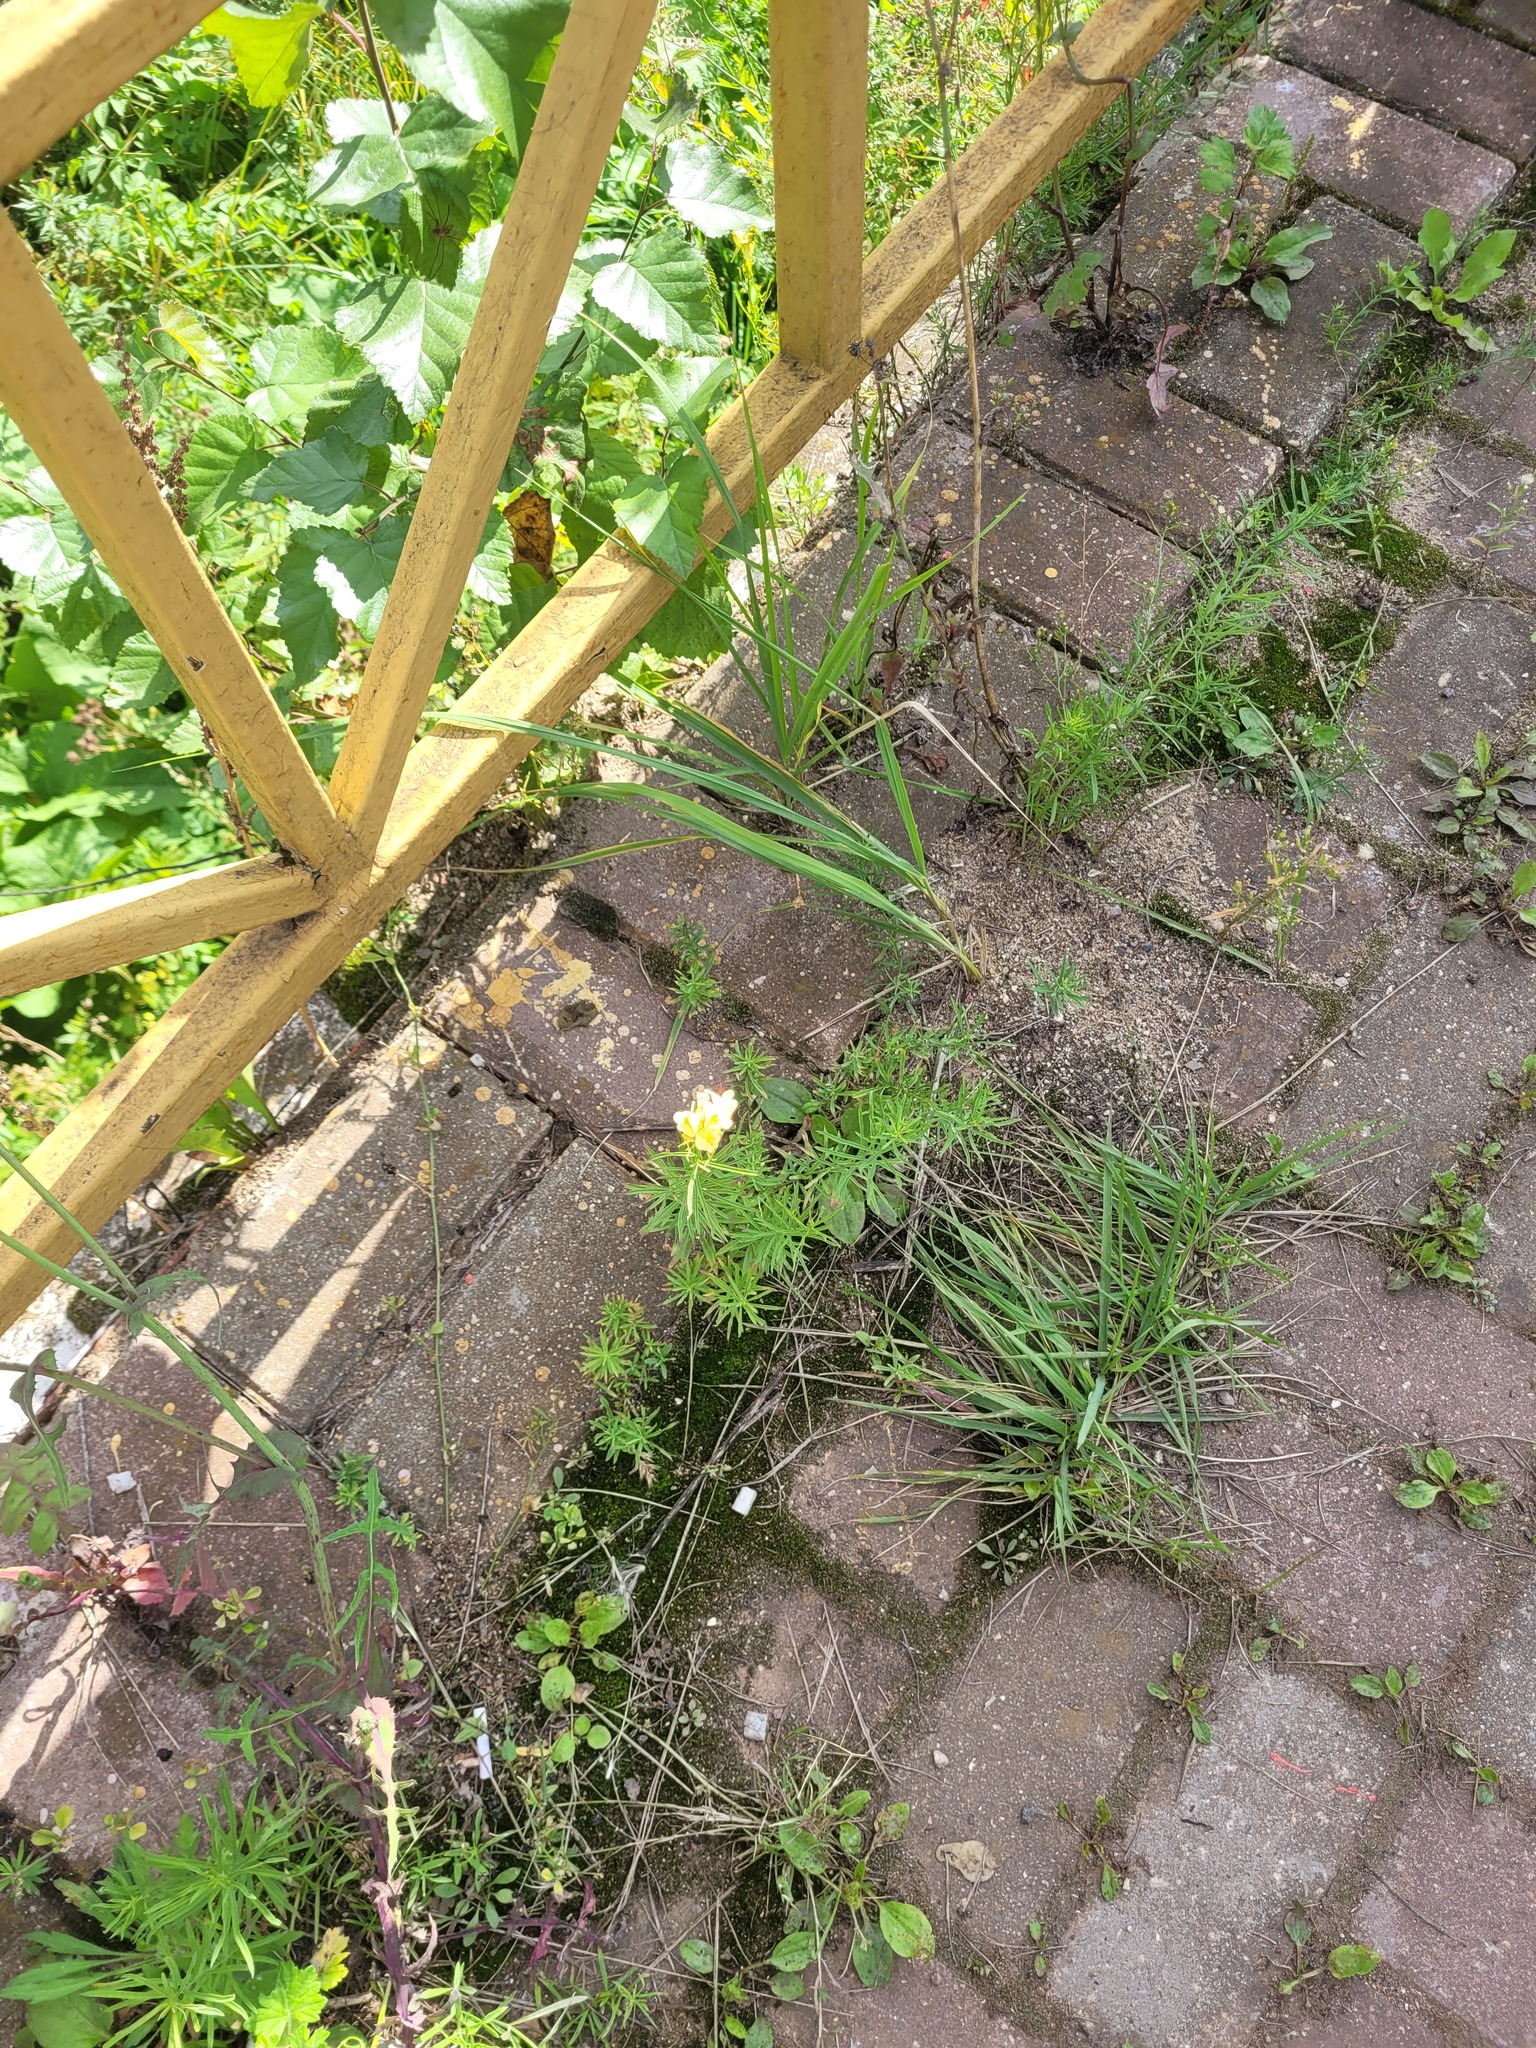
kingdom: Plantae
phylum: Tracheophyta
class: Magnoliopsida
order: Lamiales
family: Plantaginaceae
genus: Linaria
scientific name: Linaria vulgaris
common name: Butter and eggs
